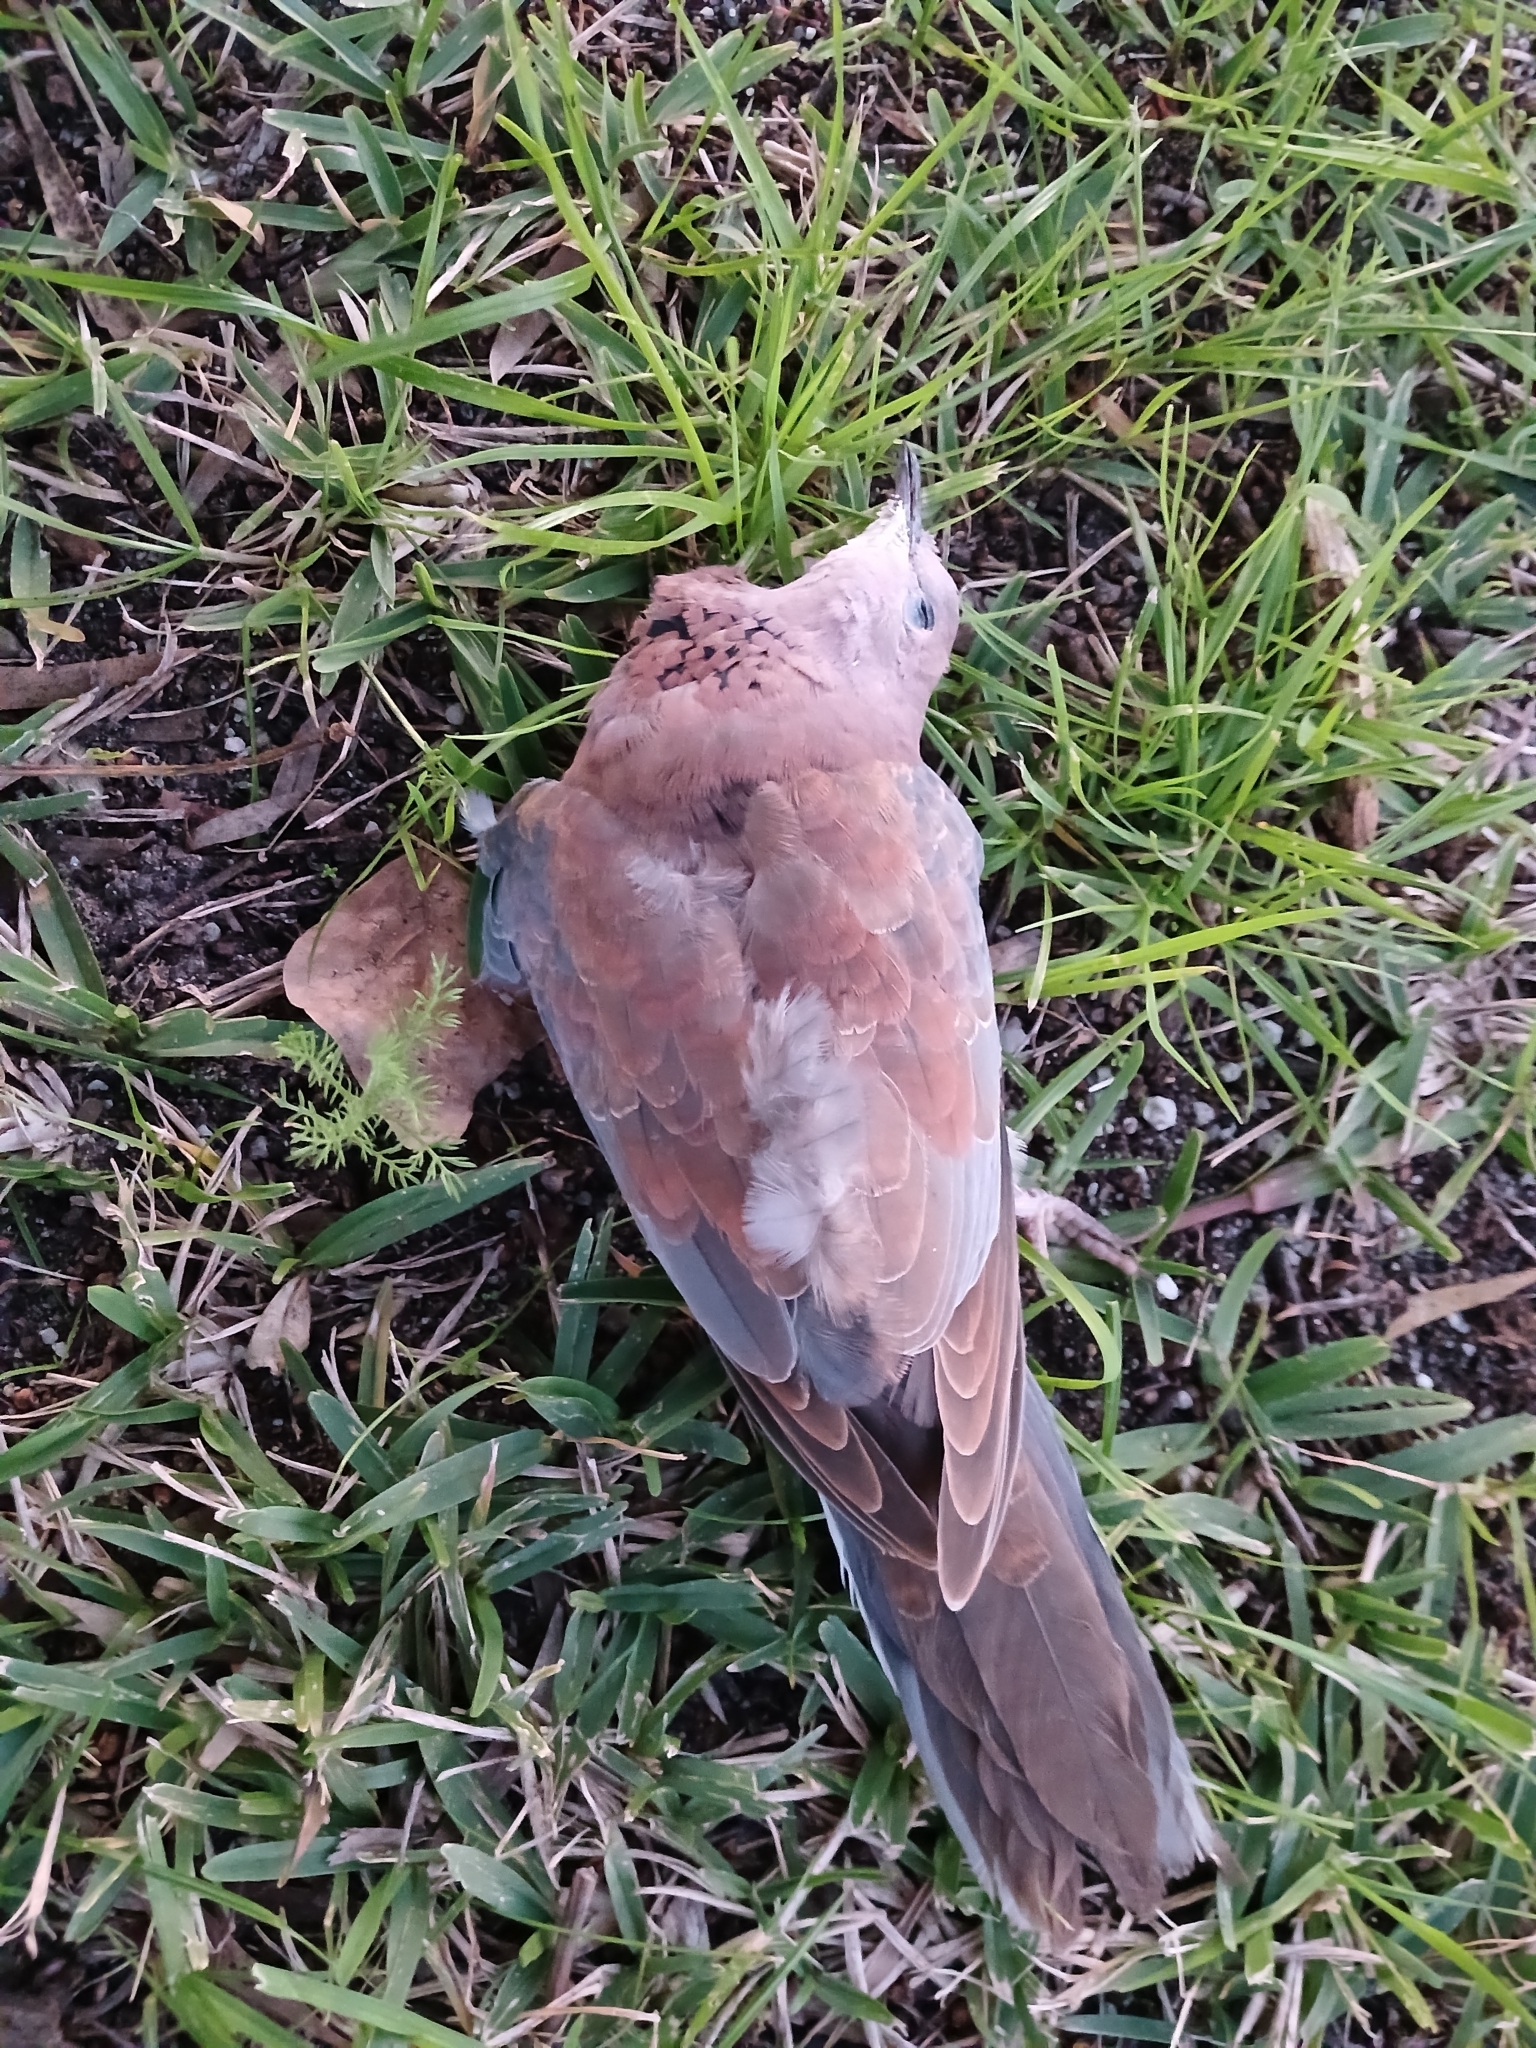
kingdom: Animalia
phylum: Chordata
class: Aves
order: Columbiformes
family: Columbidae
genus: Spilopelia
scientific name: Spilopelia senegalensis
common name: Laughing dove
